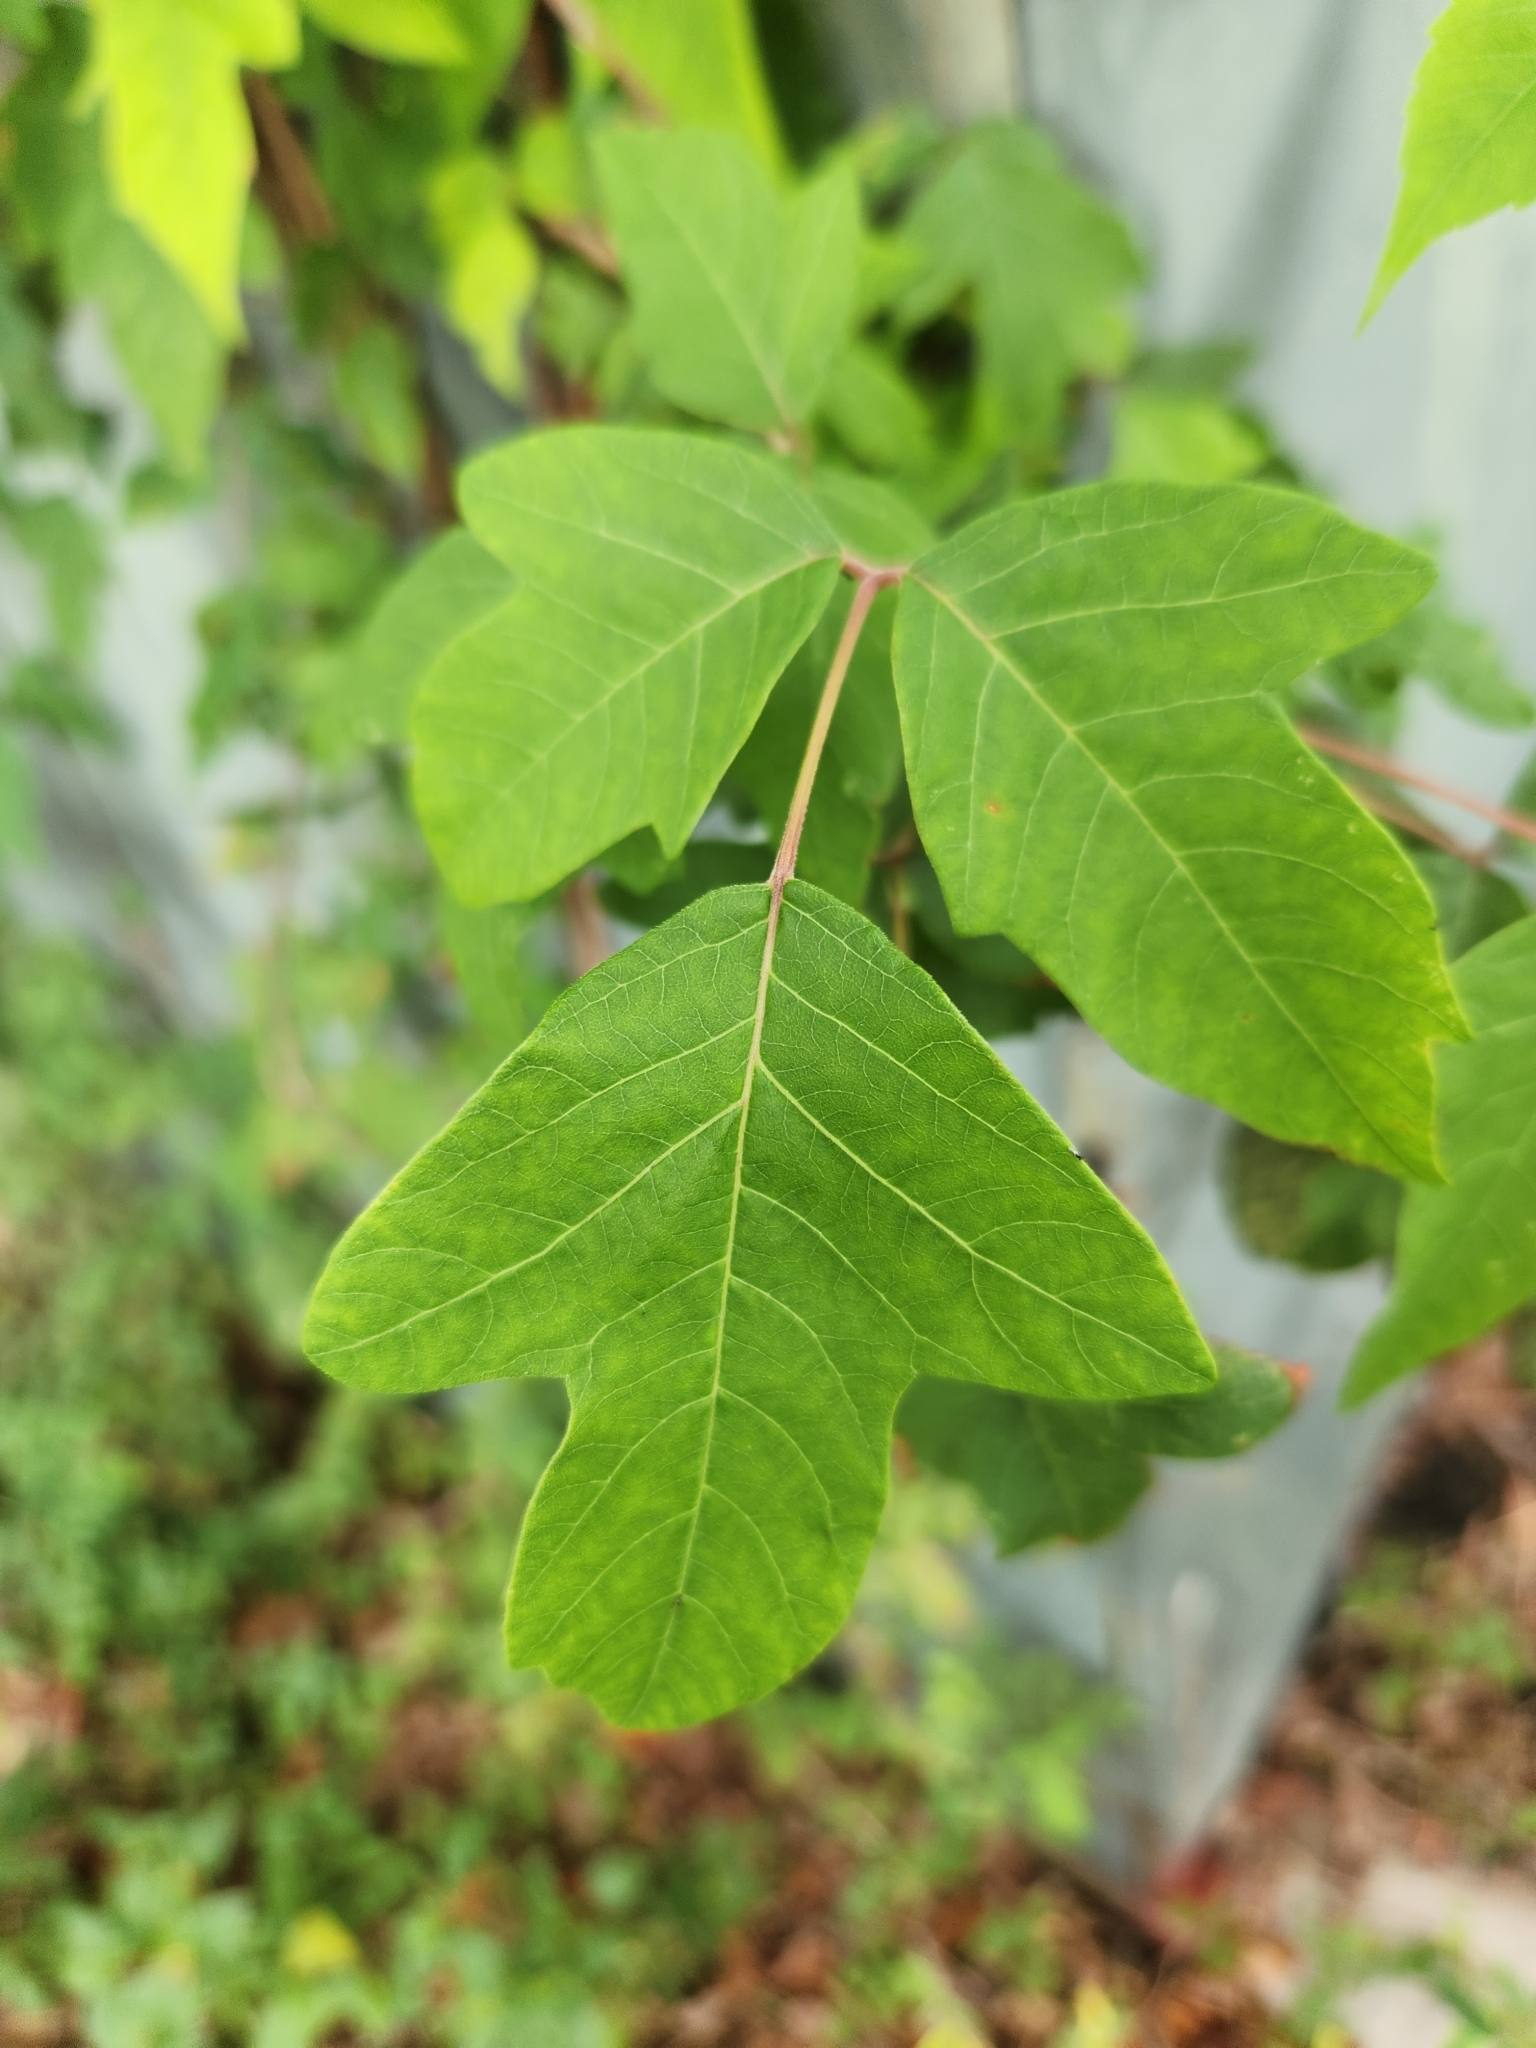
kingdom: Plantae
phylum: Tracheophyta
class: Magnoliopsida
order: Sapindales
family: Anacardiaceae
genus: Toxicodendron
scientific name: Toxicodendron radicans
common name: Poison ivy
